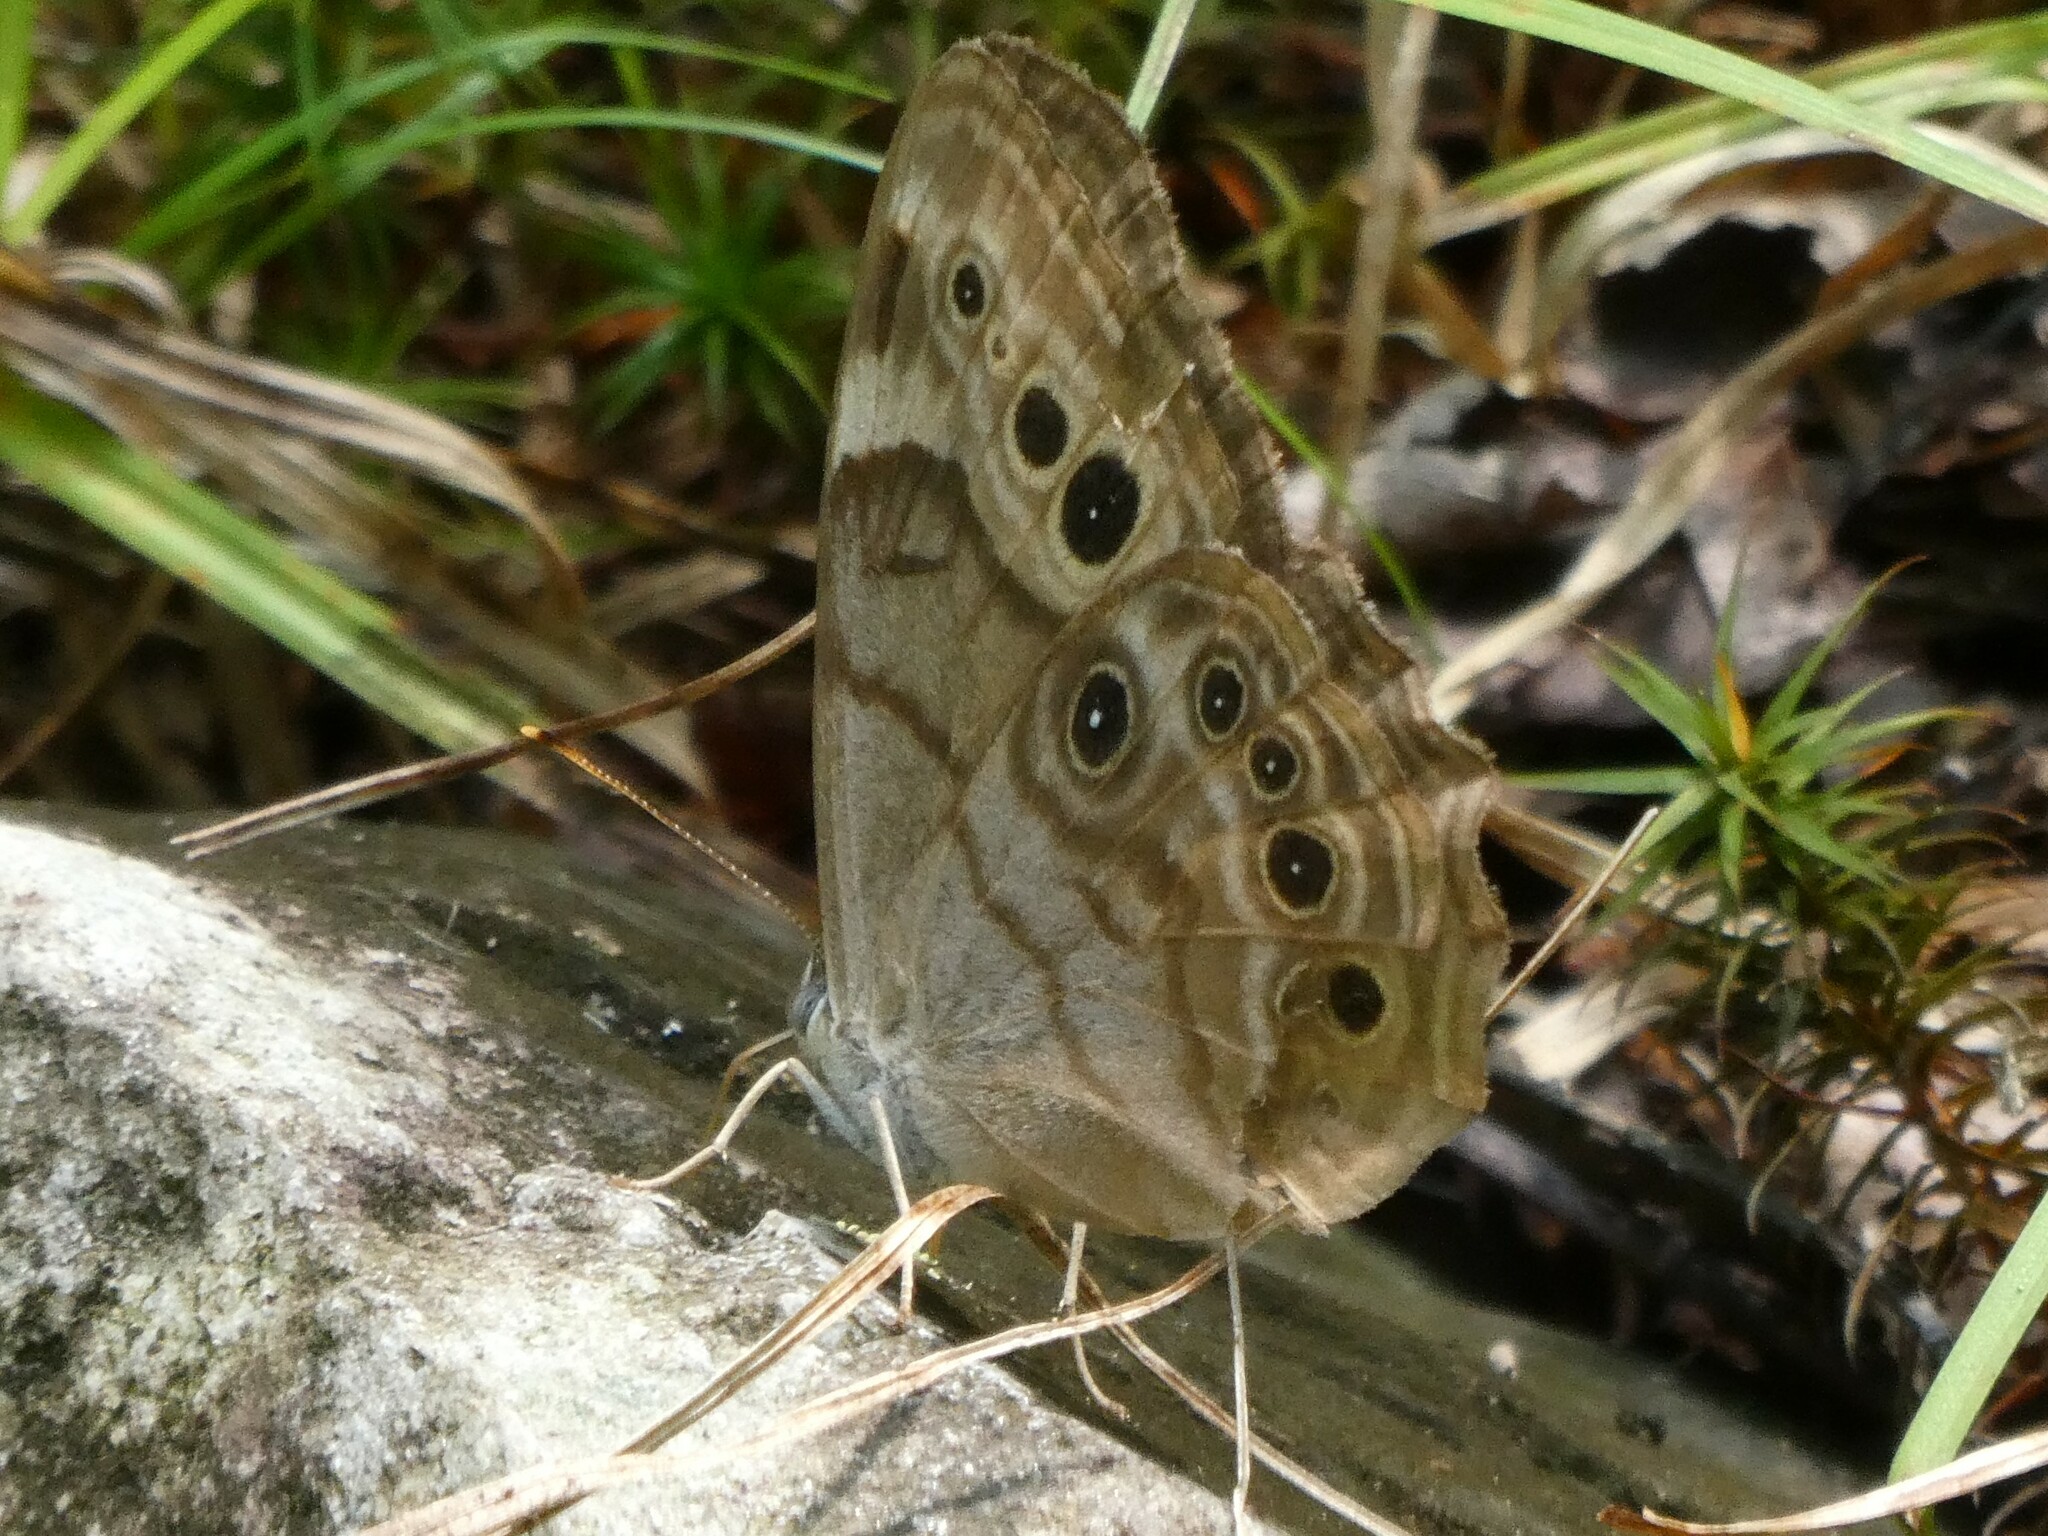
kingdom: Animalia
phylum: Arthropoda
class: Insecta
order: Lepidoptera
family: Nymphalidae
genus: Lethe
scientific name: Lethe anthedon
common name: Northern pearly-eye
